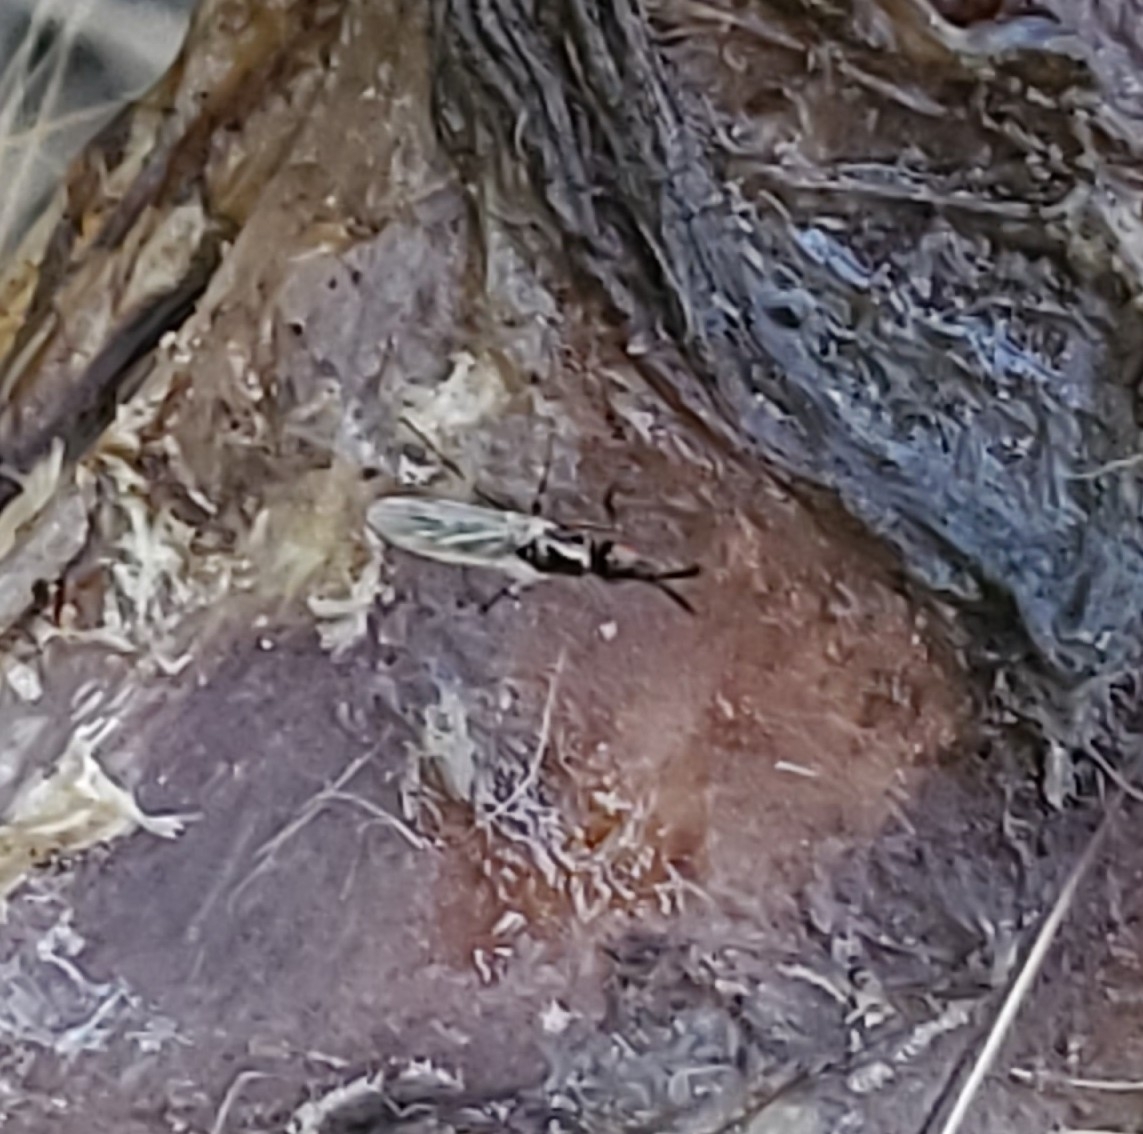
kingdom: Animalia
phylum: Arthropoda
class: Insecta
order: Diptera
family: Piophilidae
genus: Prochyliza
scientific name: Prochyliza xanthostoma
